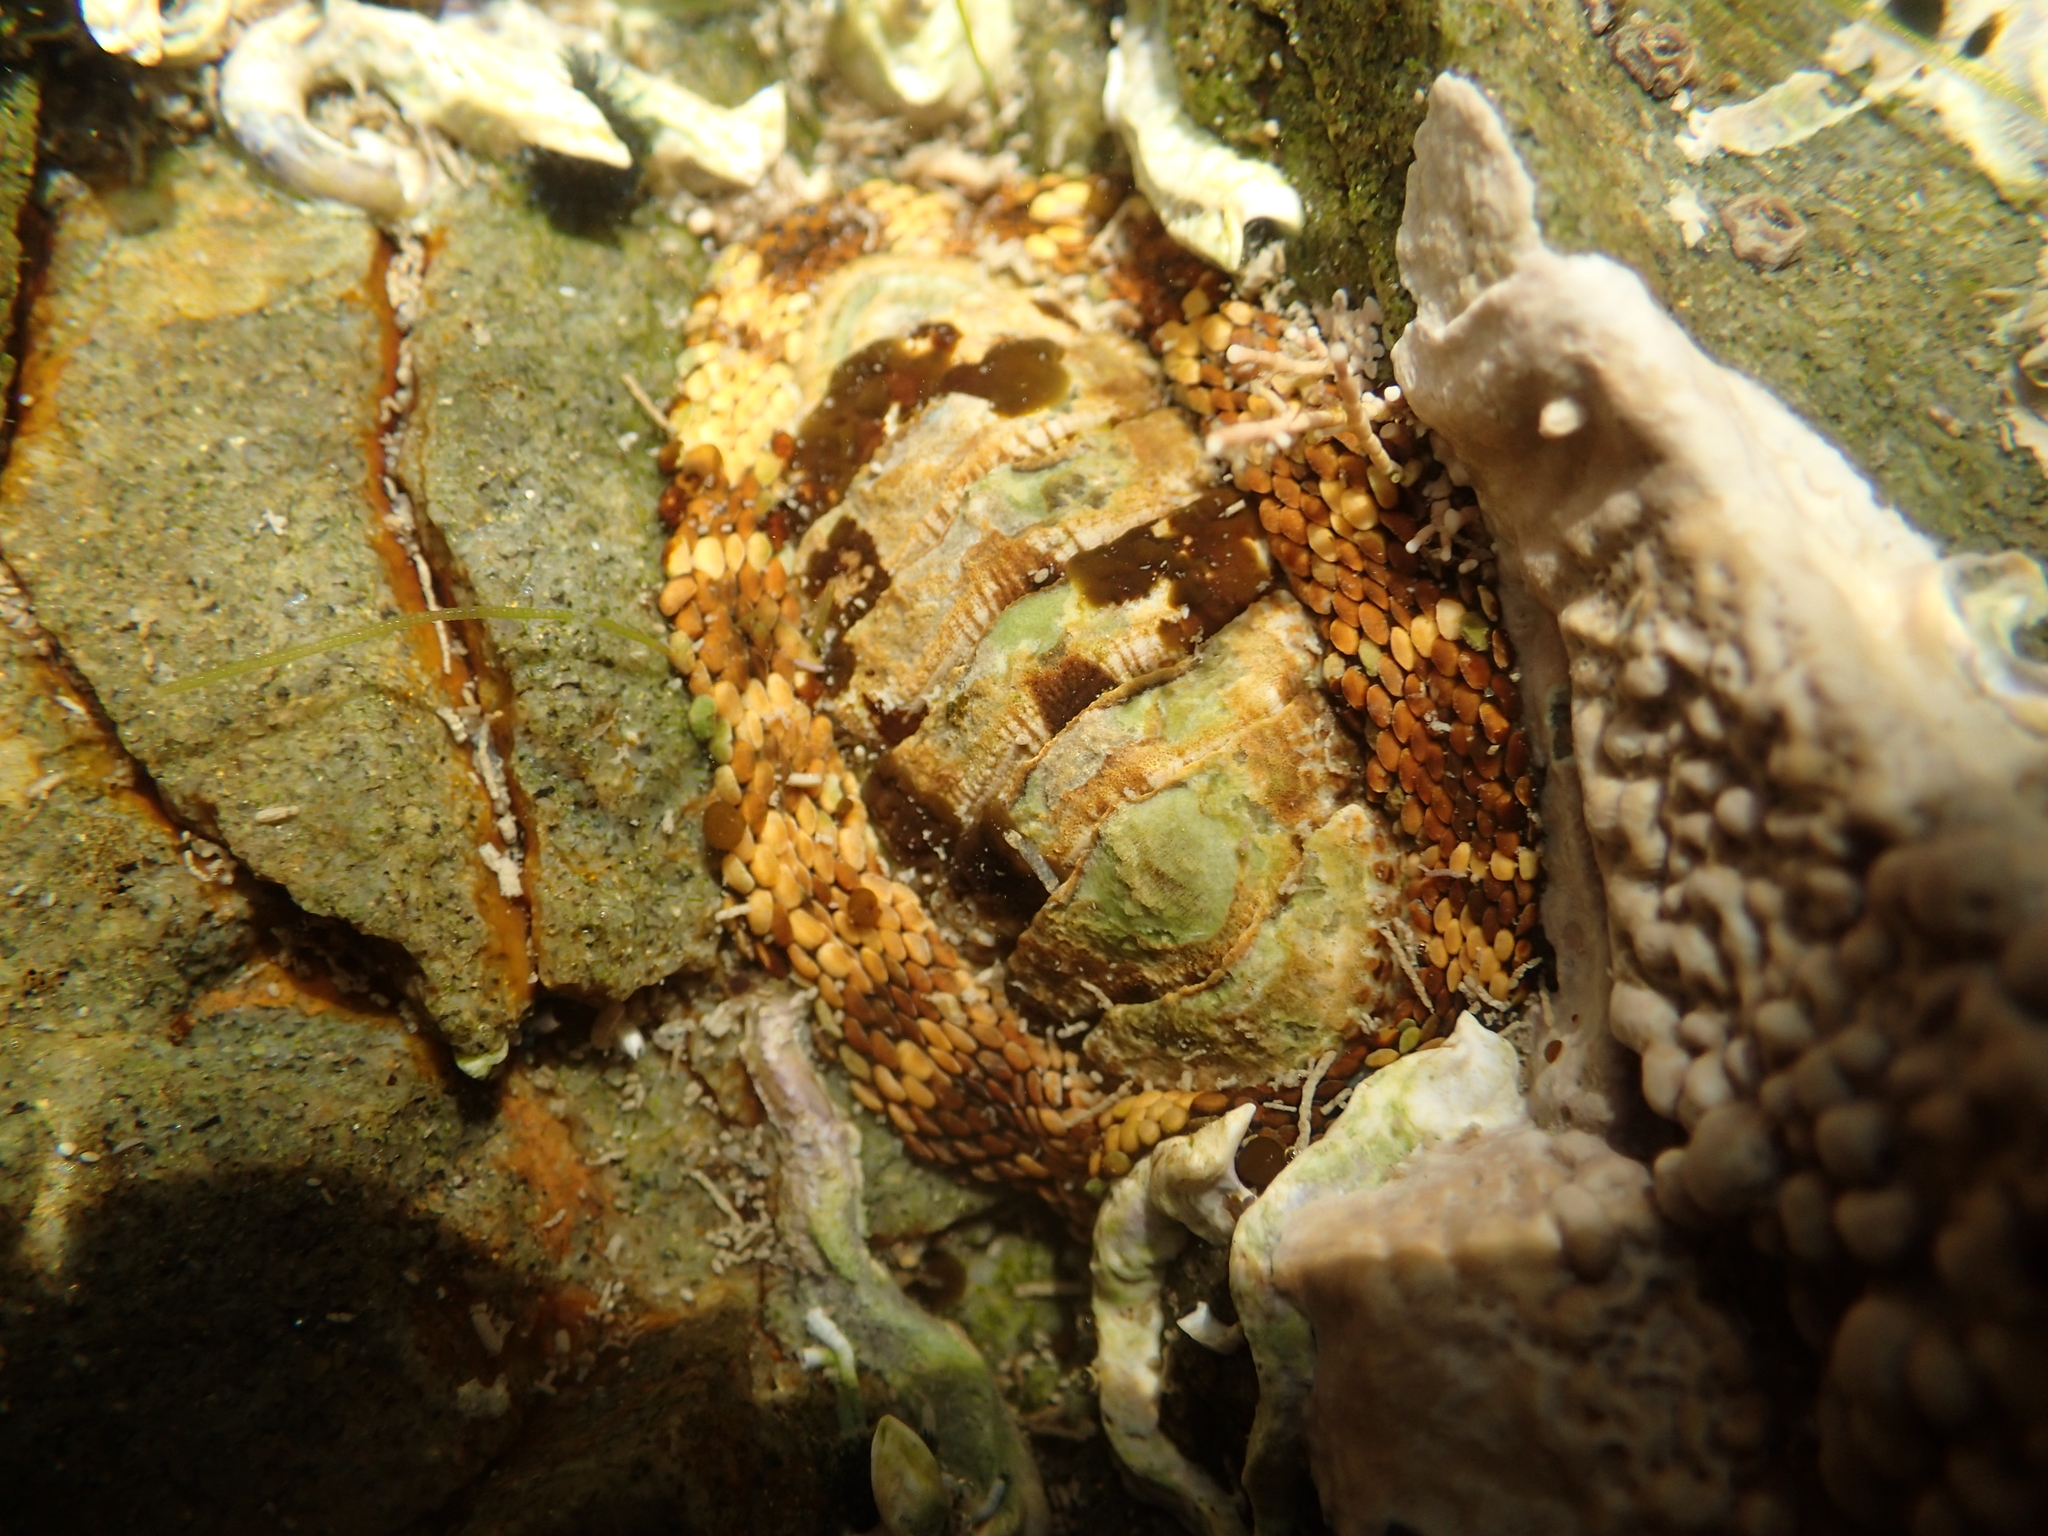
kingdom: Animalia
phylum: Mollusca
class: Polyplacophora
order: Chitonida
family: Chitonidae
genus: Sypharochiton
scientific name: Sypharochiton pelliserpentis
